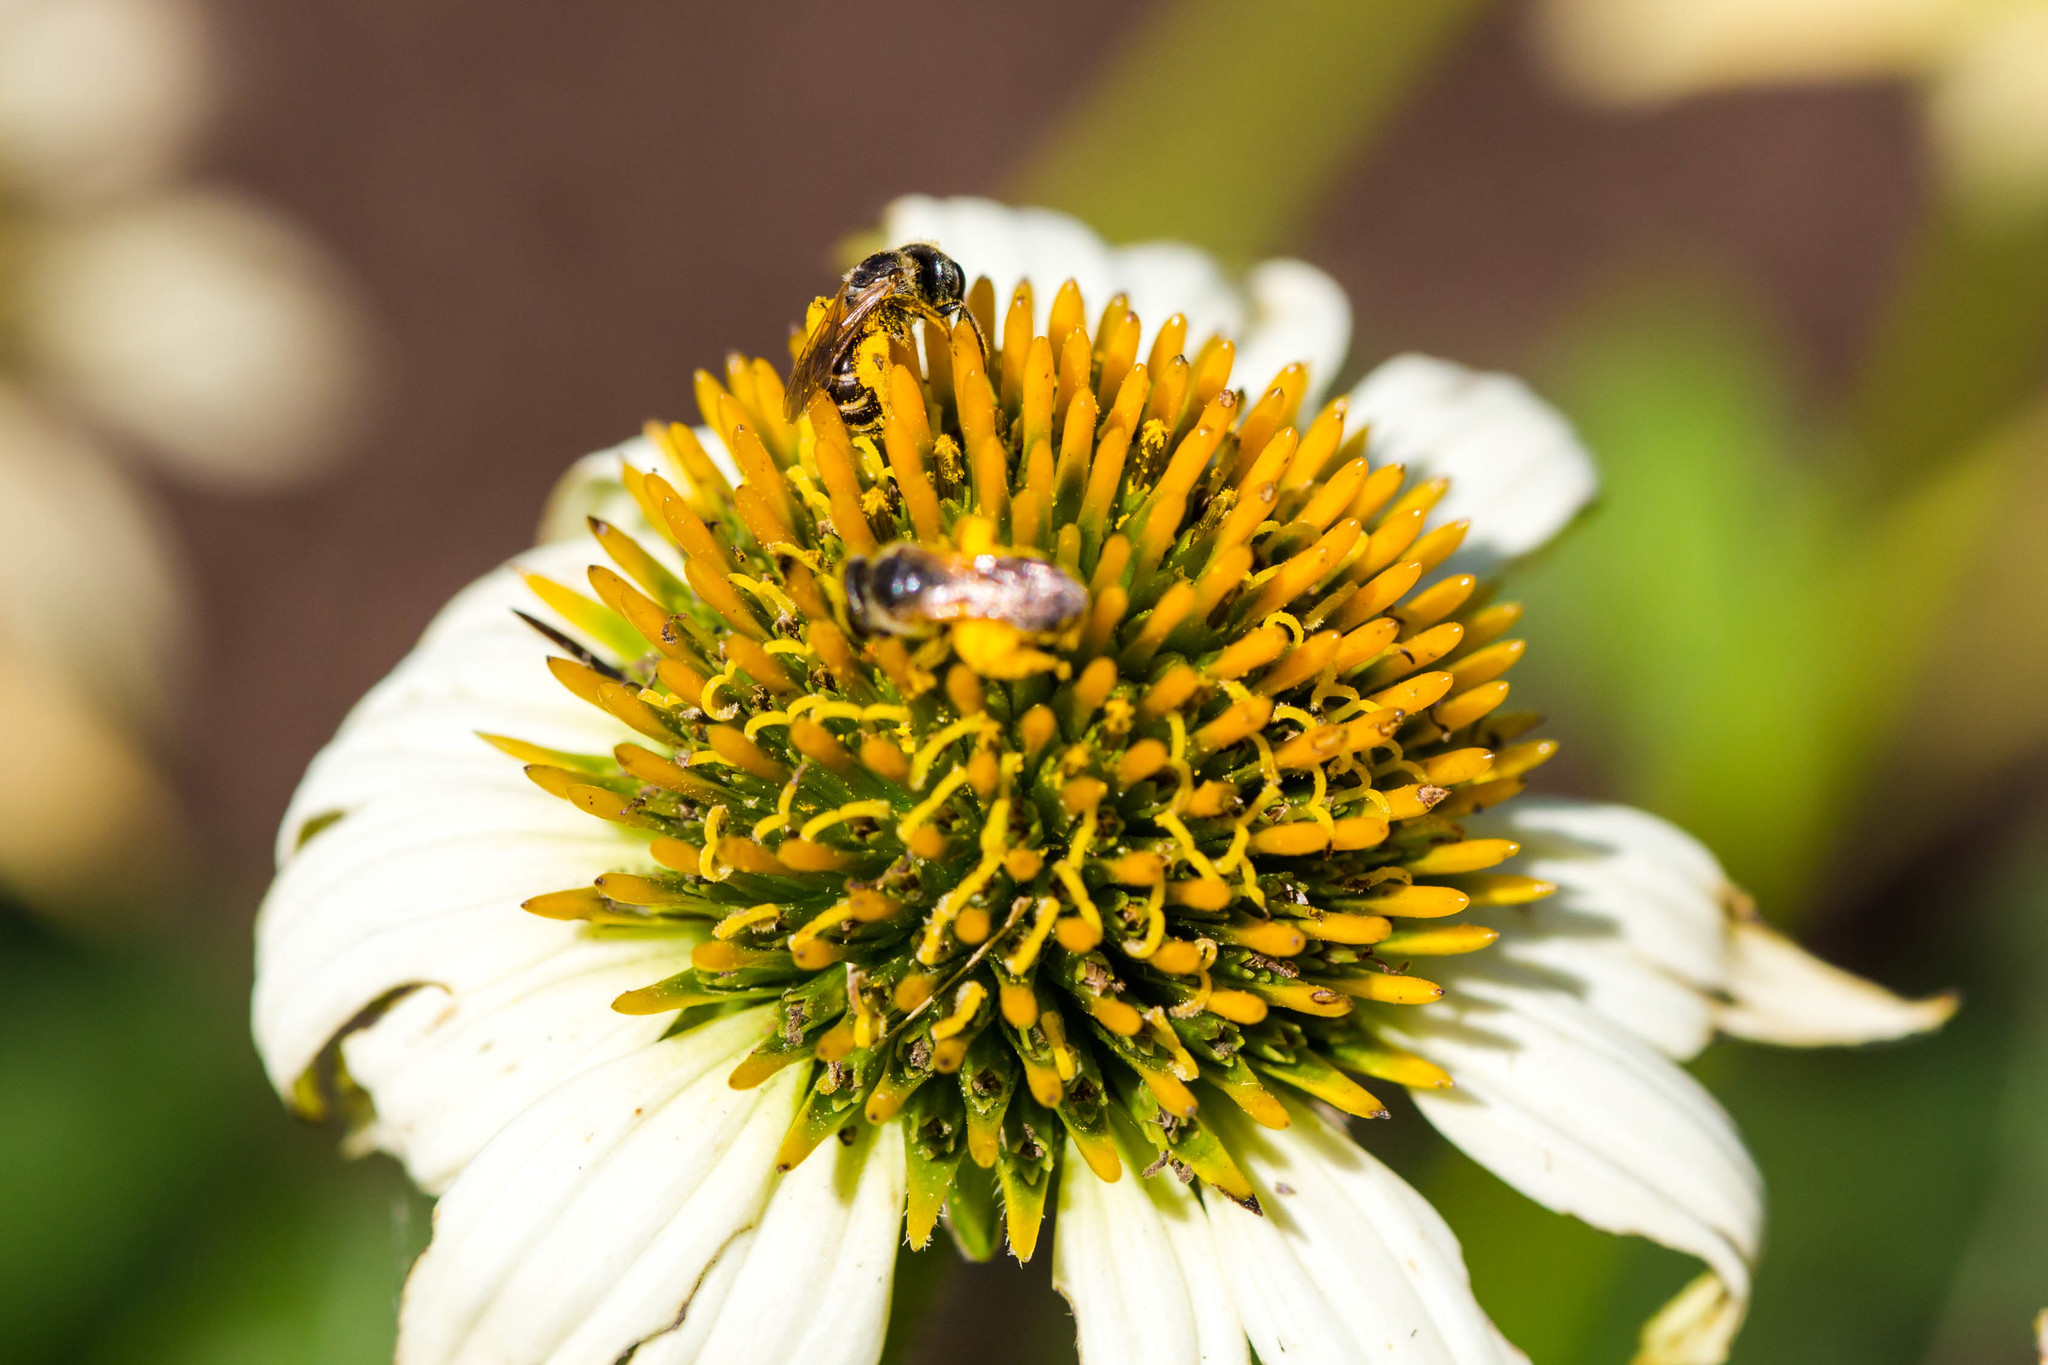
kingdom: Animalia
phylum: Arthropoda
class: Insecta
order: Hymenoptera
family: Halictidae
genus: Halictus
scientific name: Halictus ligatus
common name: Ligated furrow bee
